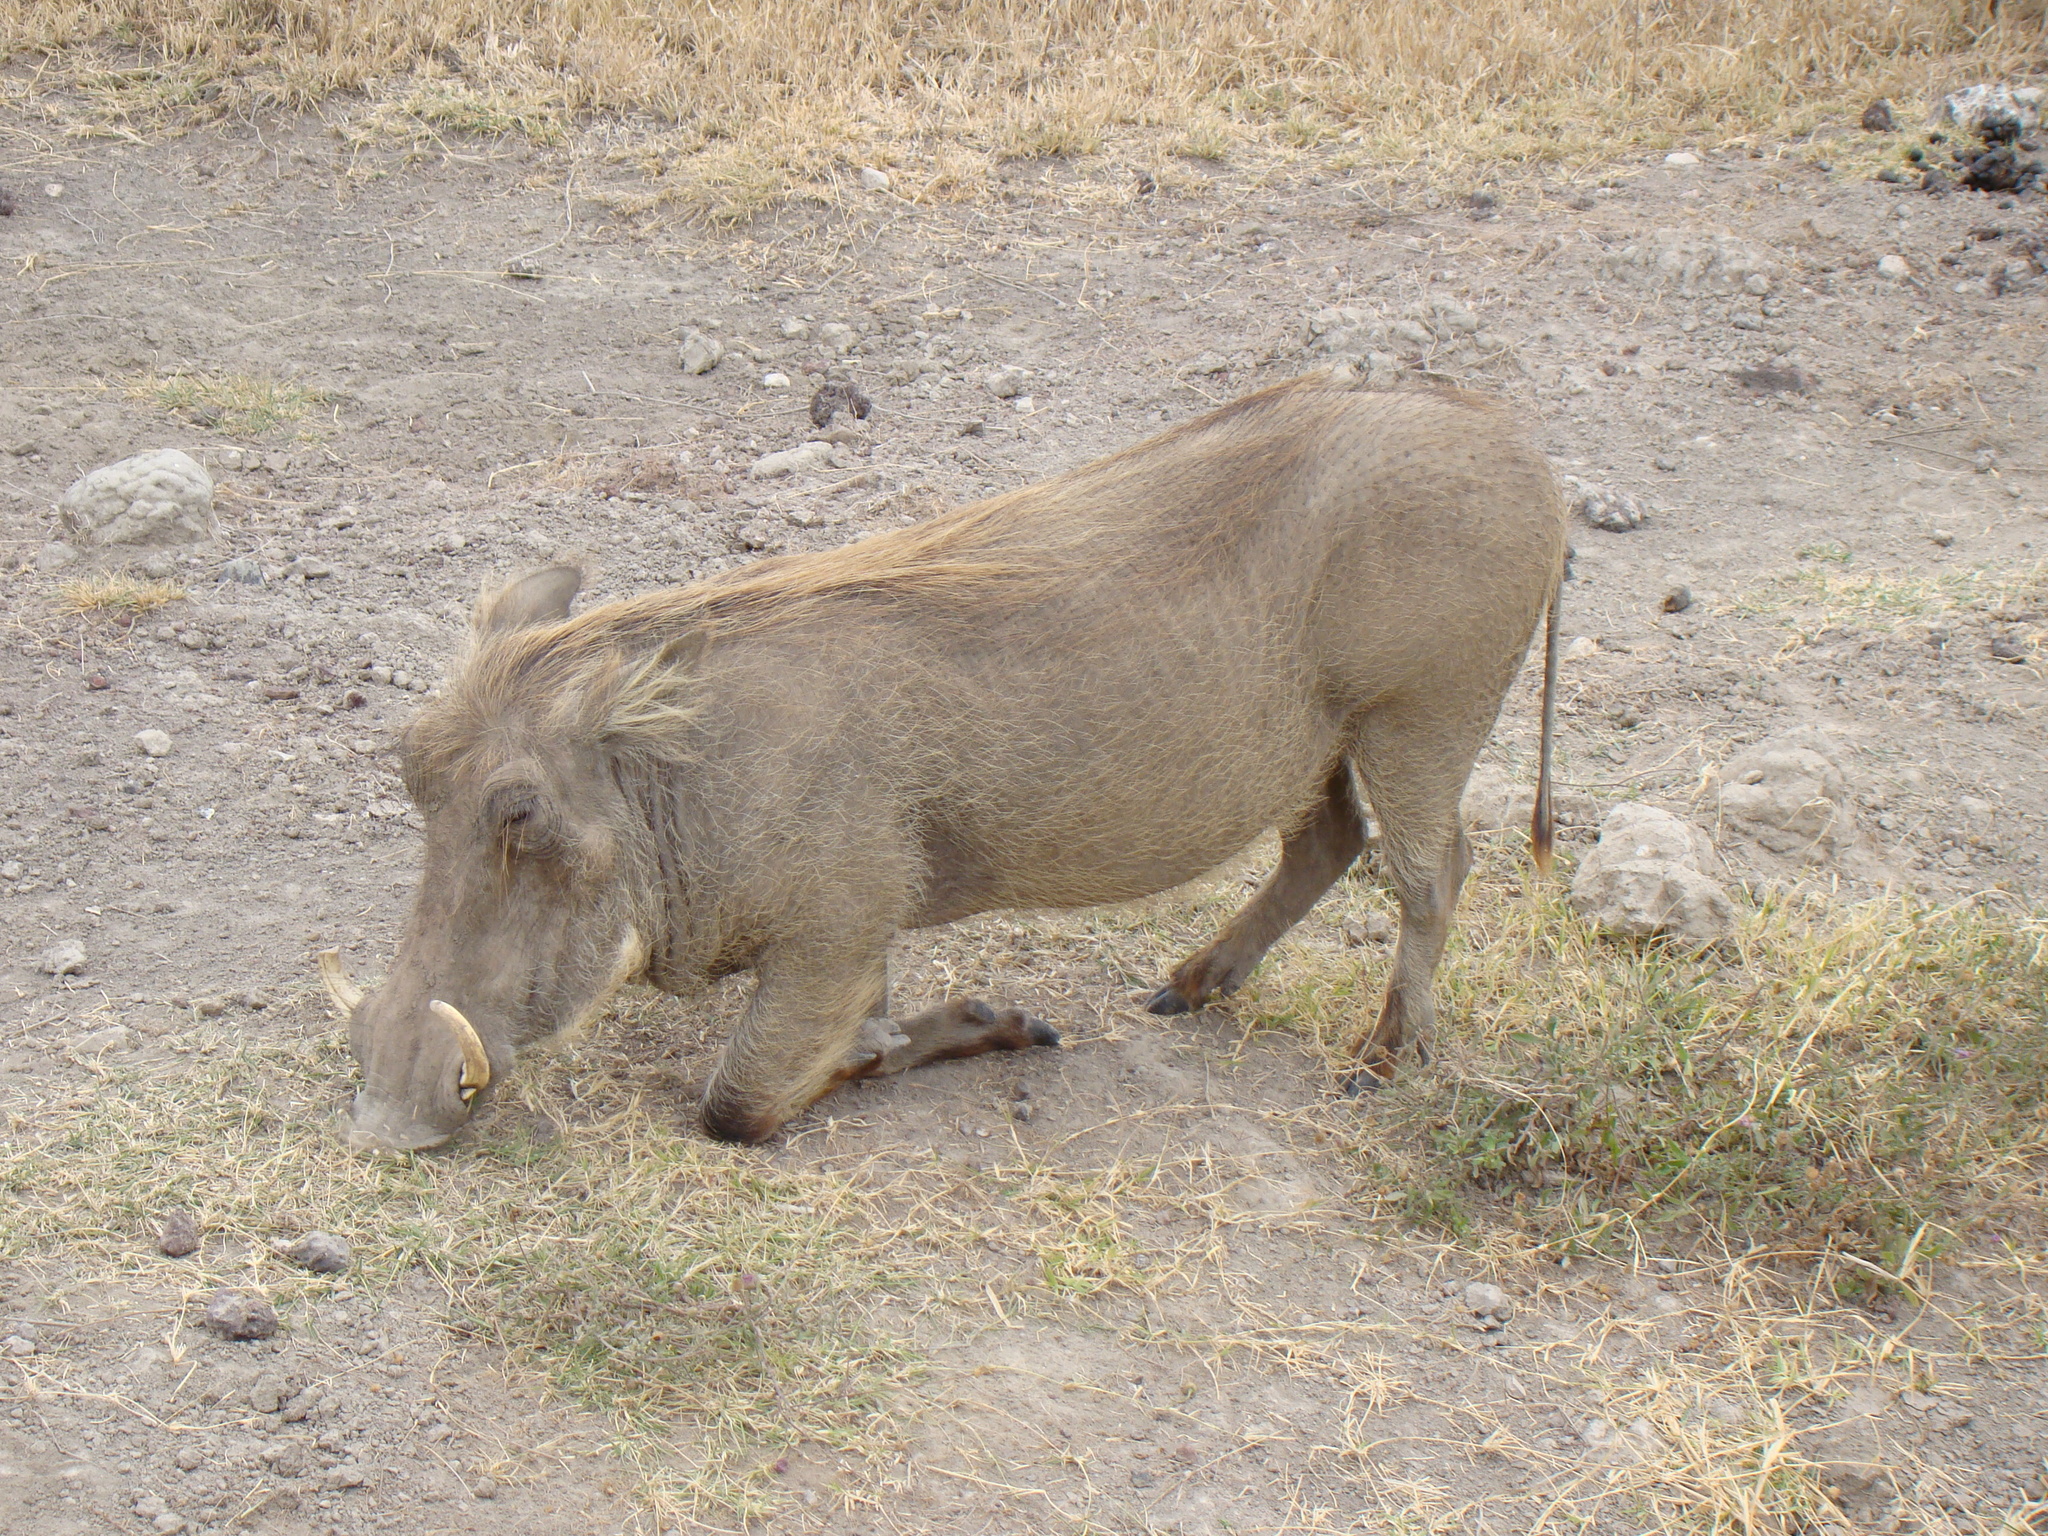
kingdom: Animalia
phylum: Chordata
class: Mammalia
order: Artiodactyla
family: Suidae
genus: Phacochoerus
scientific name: Phacochoerus africanus
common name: Common warthog
